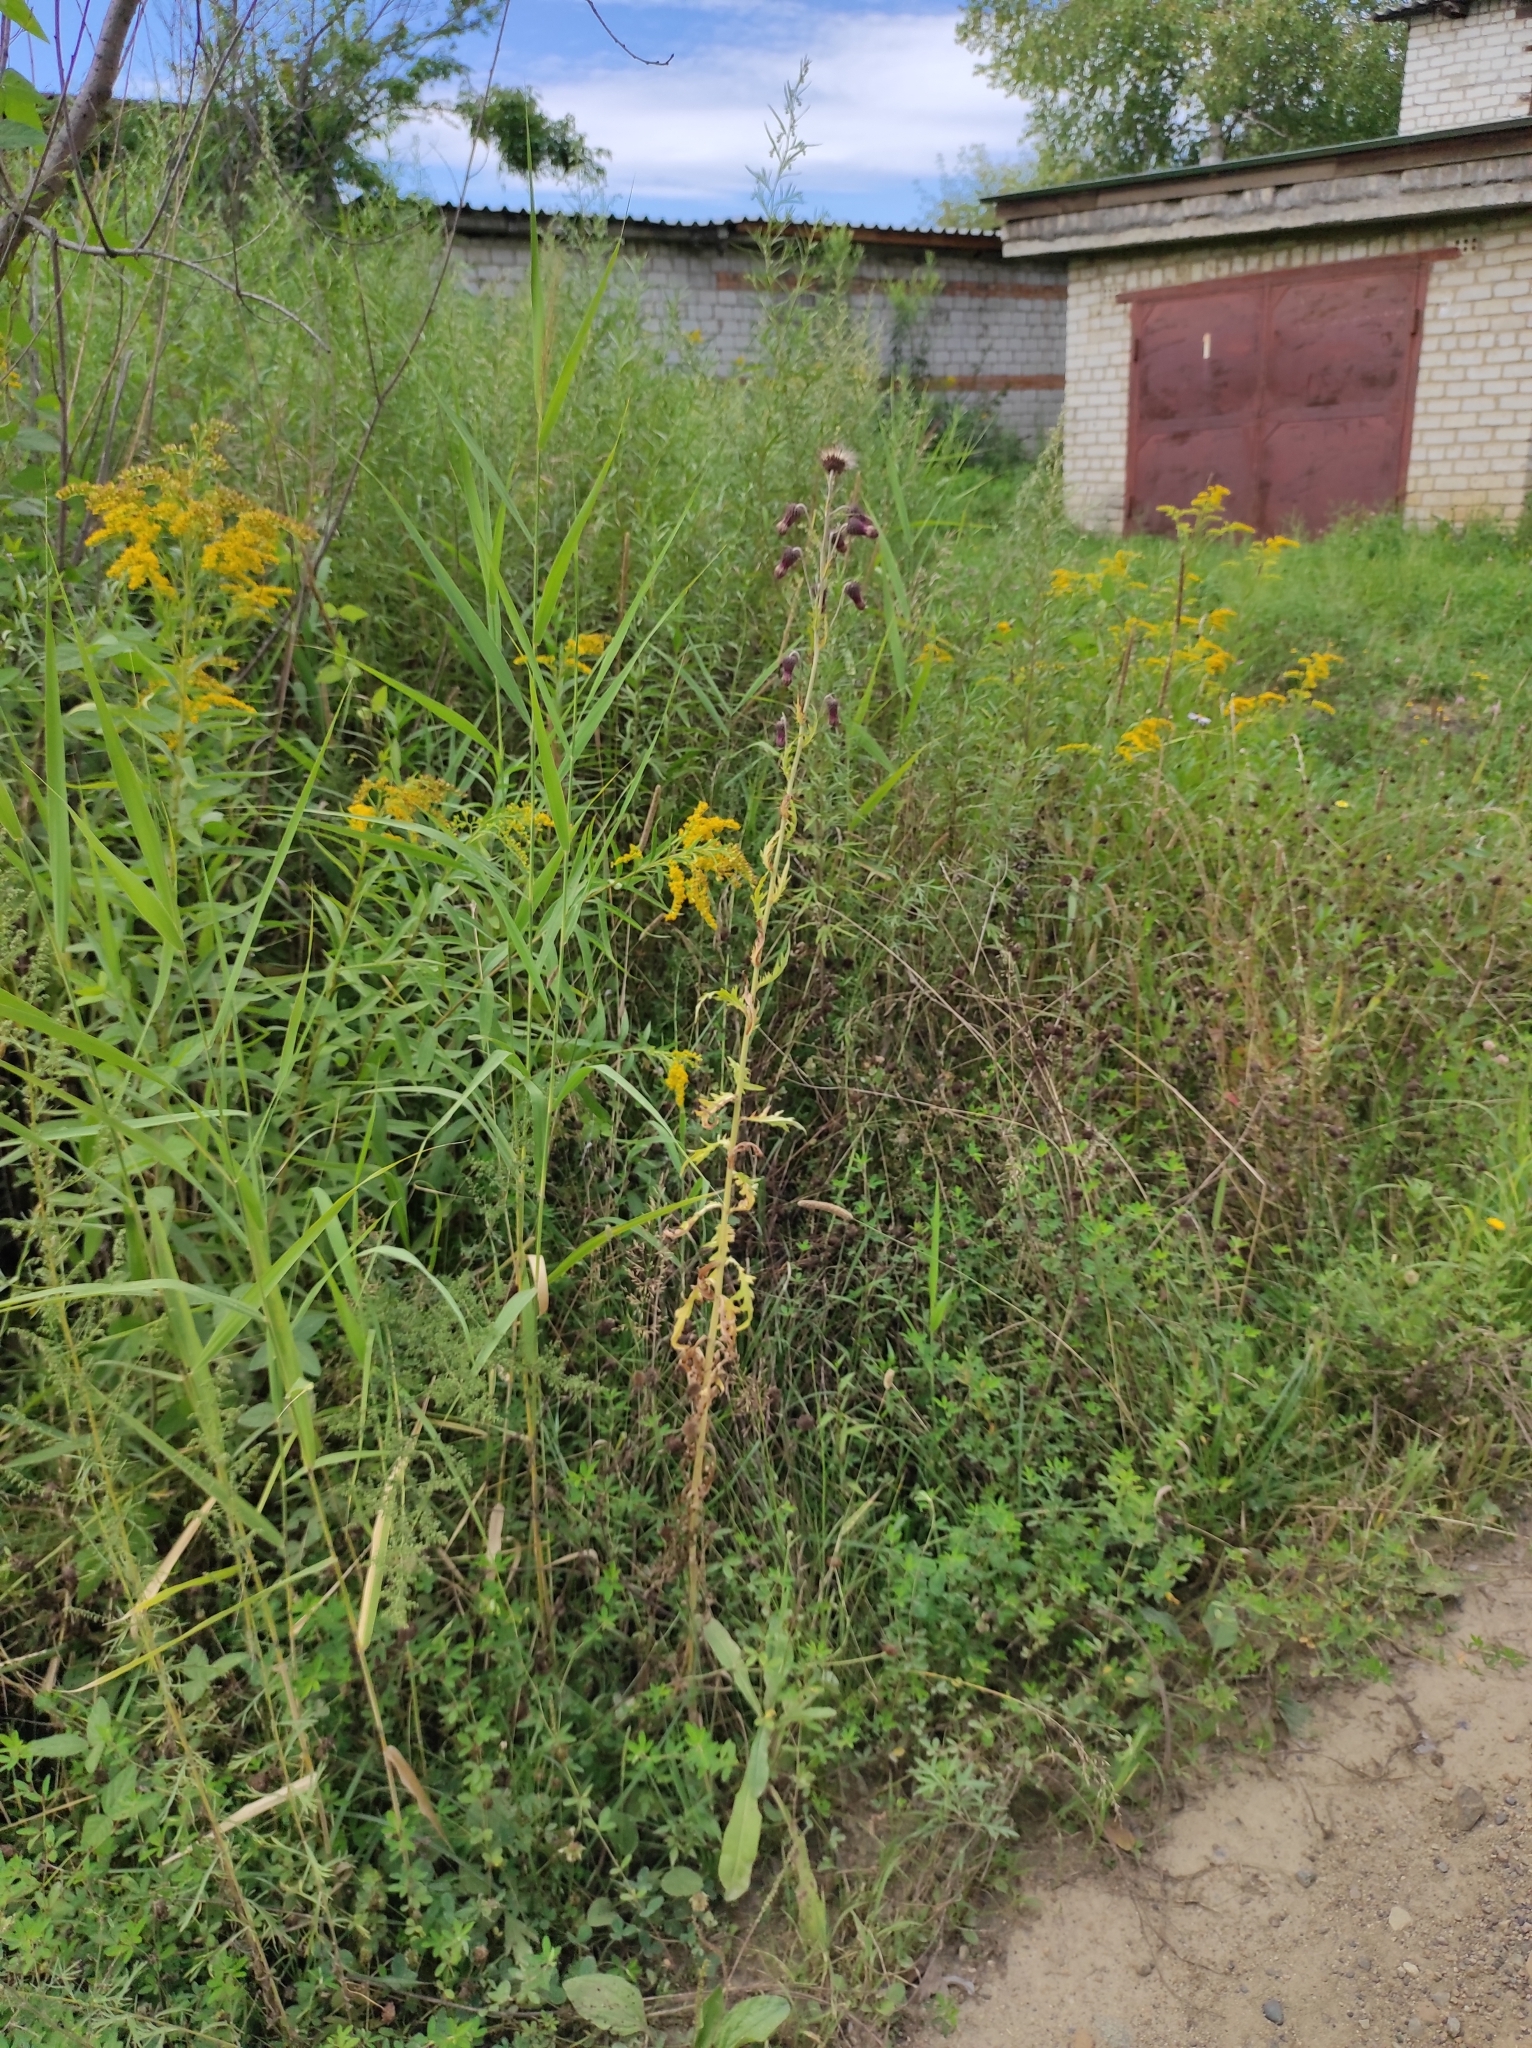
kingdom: Plantae
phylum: Tracheophyta
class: Magnoliopsida
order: Asterales
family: Asteraceae
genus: Cirsium
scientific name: Cirsium pendulum
